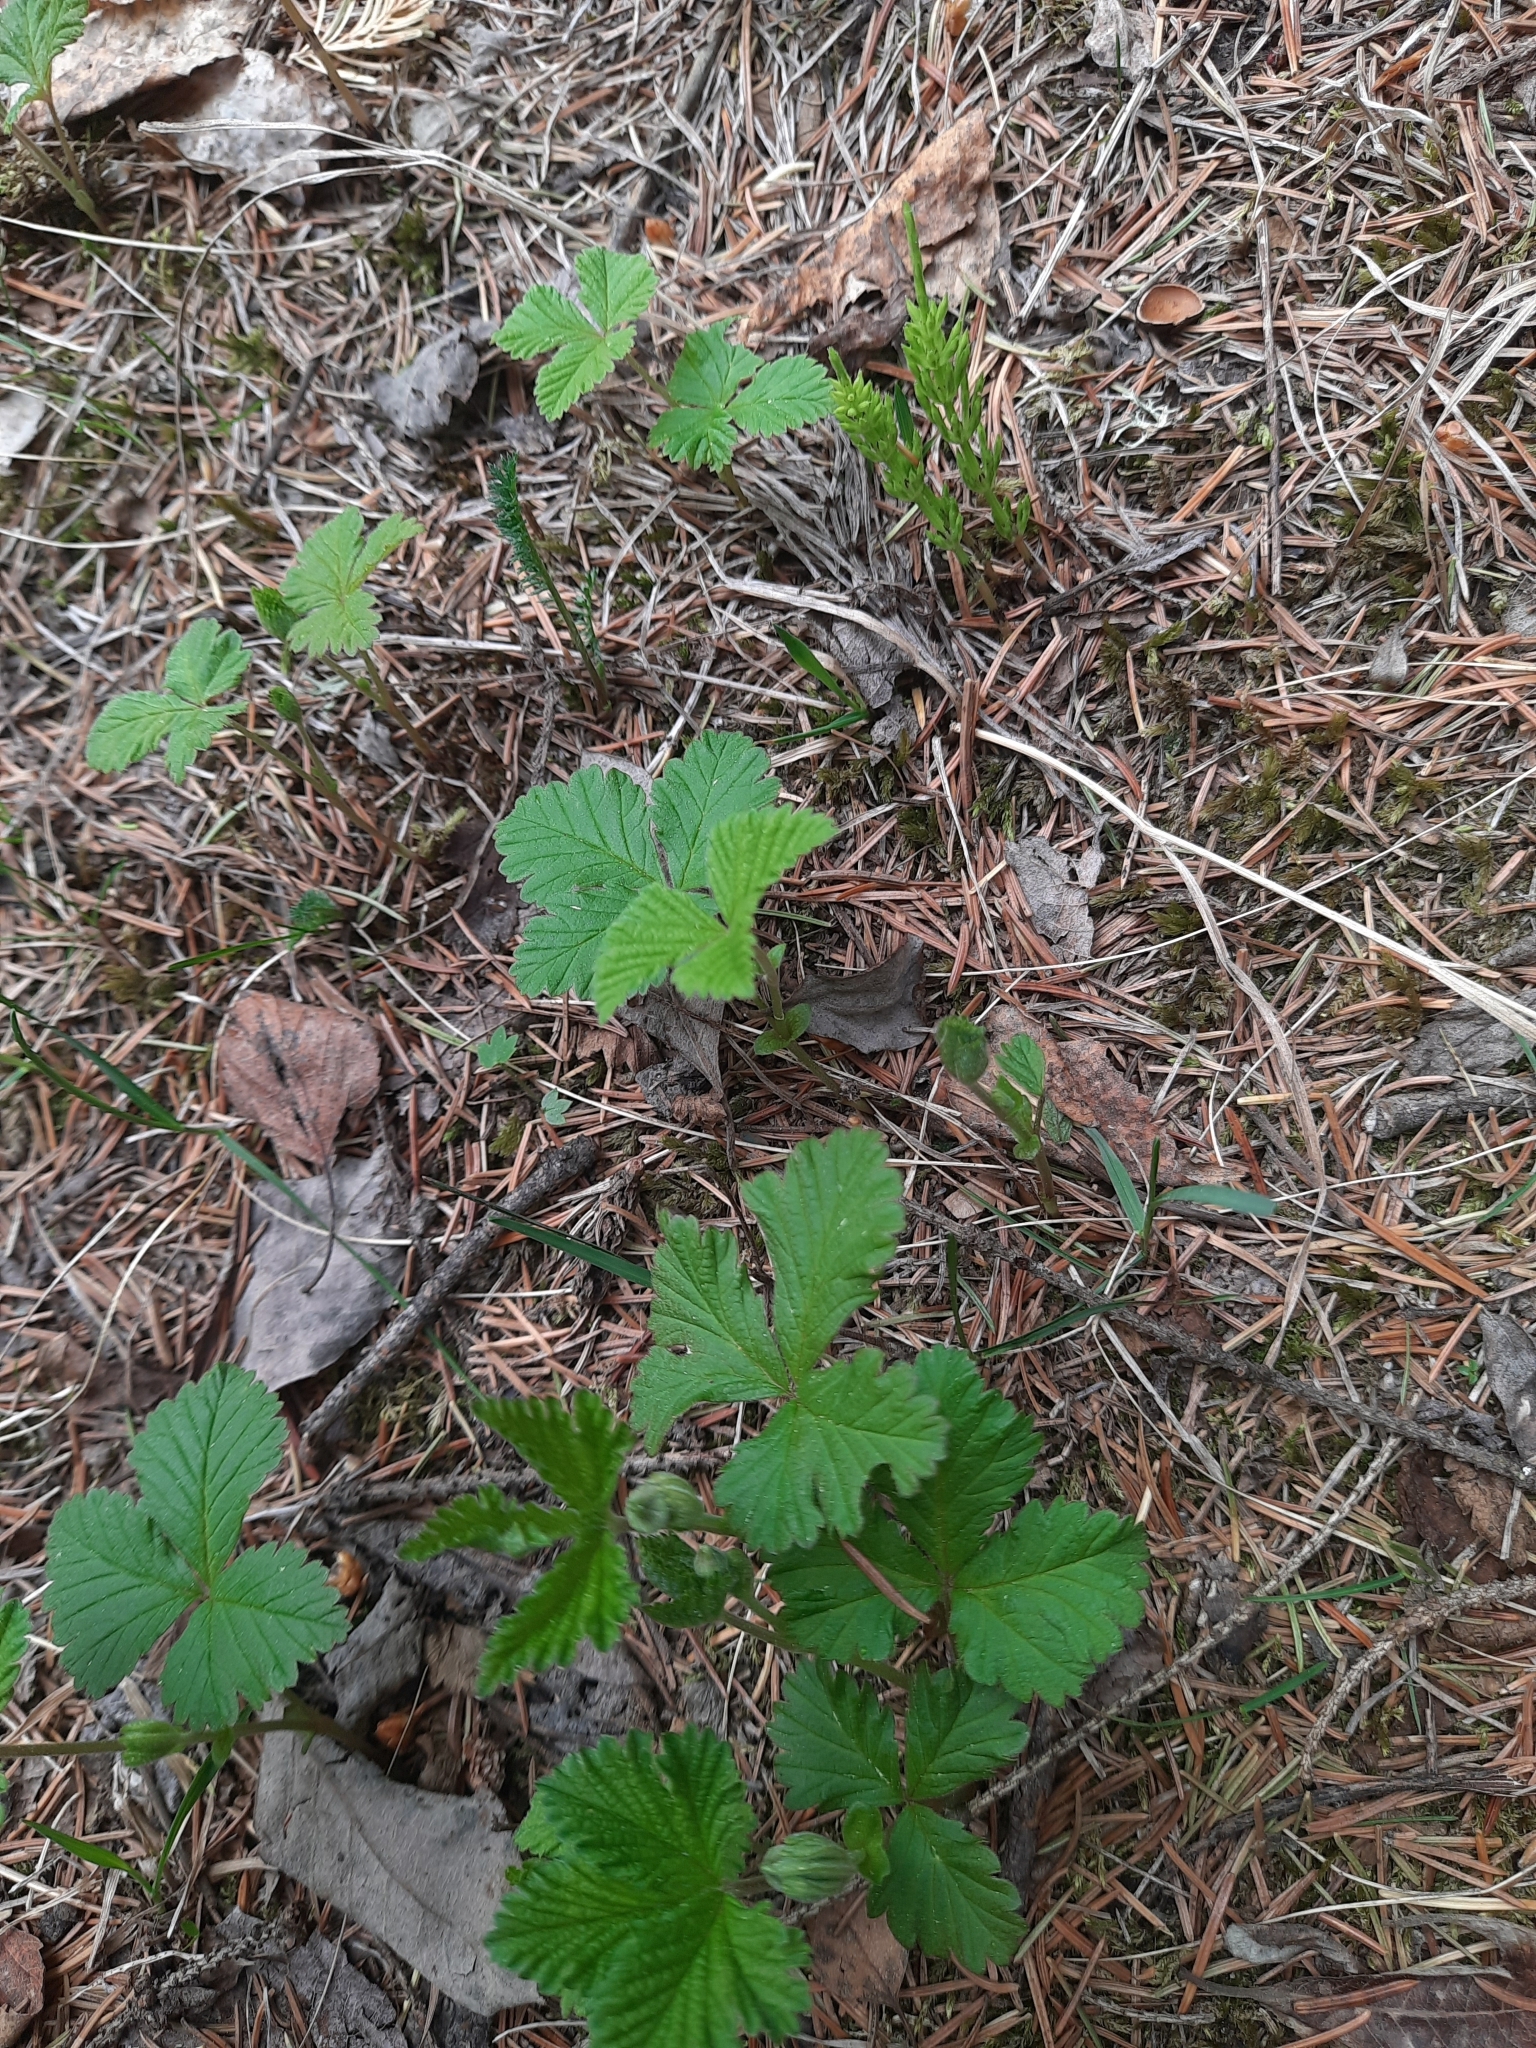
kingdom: Plantae
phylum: Tracheophyta
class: Magnoliopsida
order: Rosales
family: Rosaceae
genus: Rubus
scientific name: Rubus arcticus
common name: Arctic bramble
